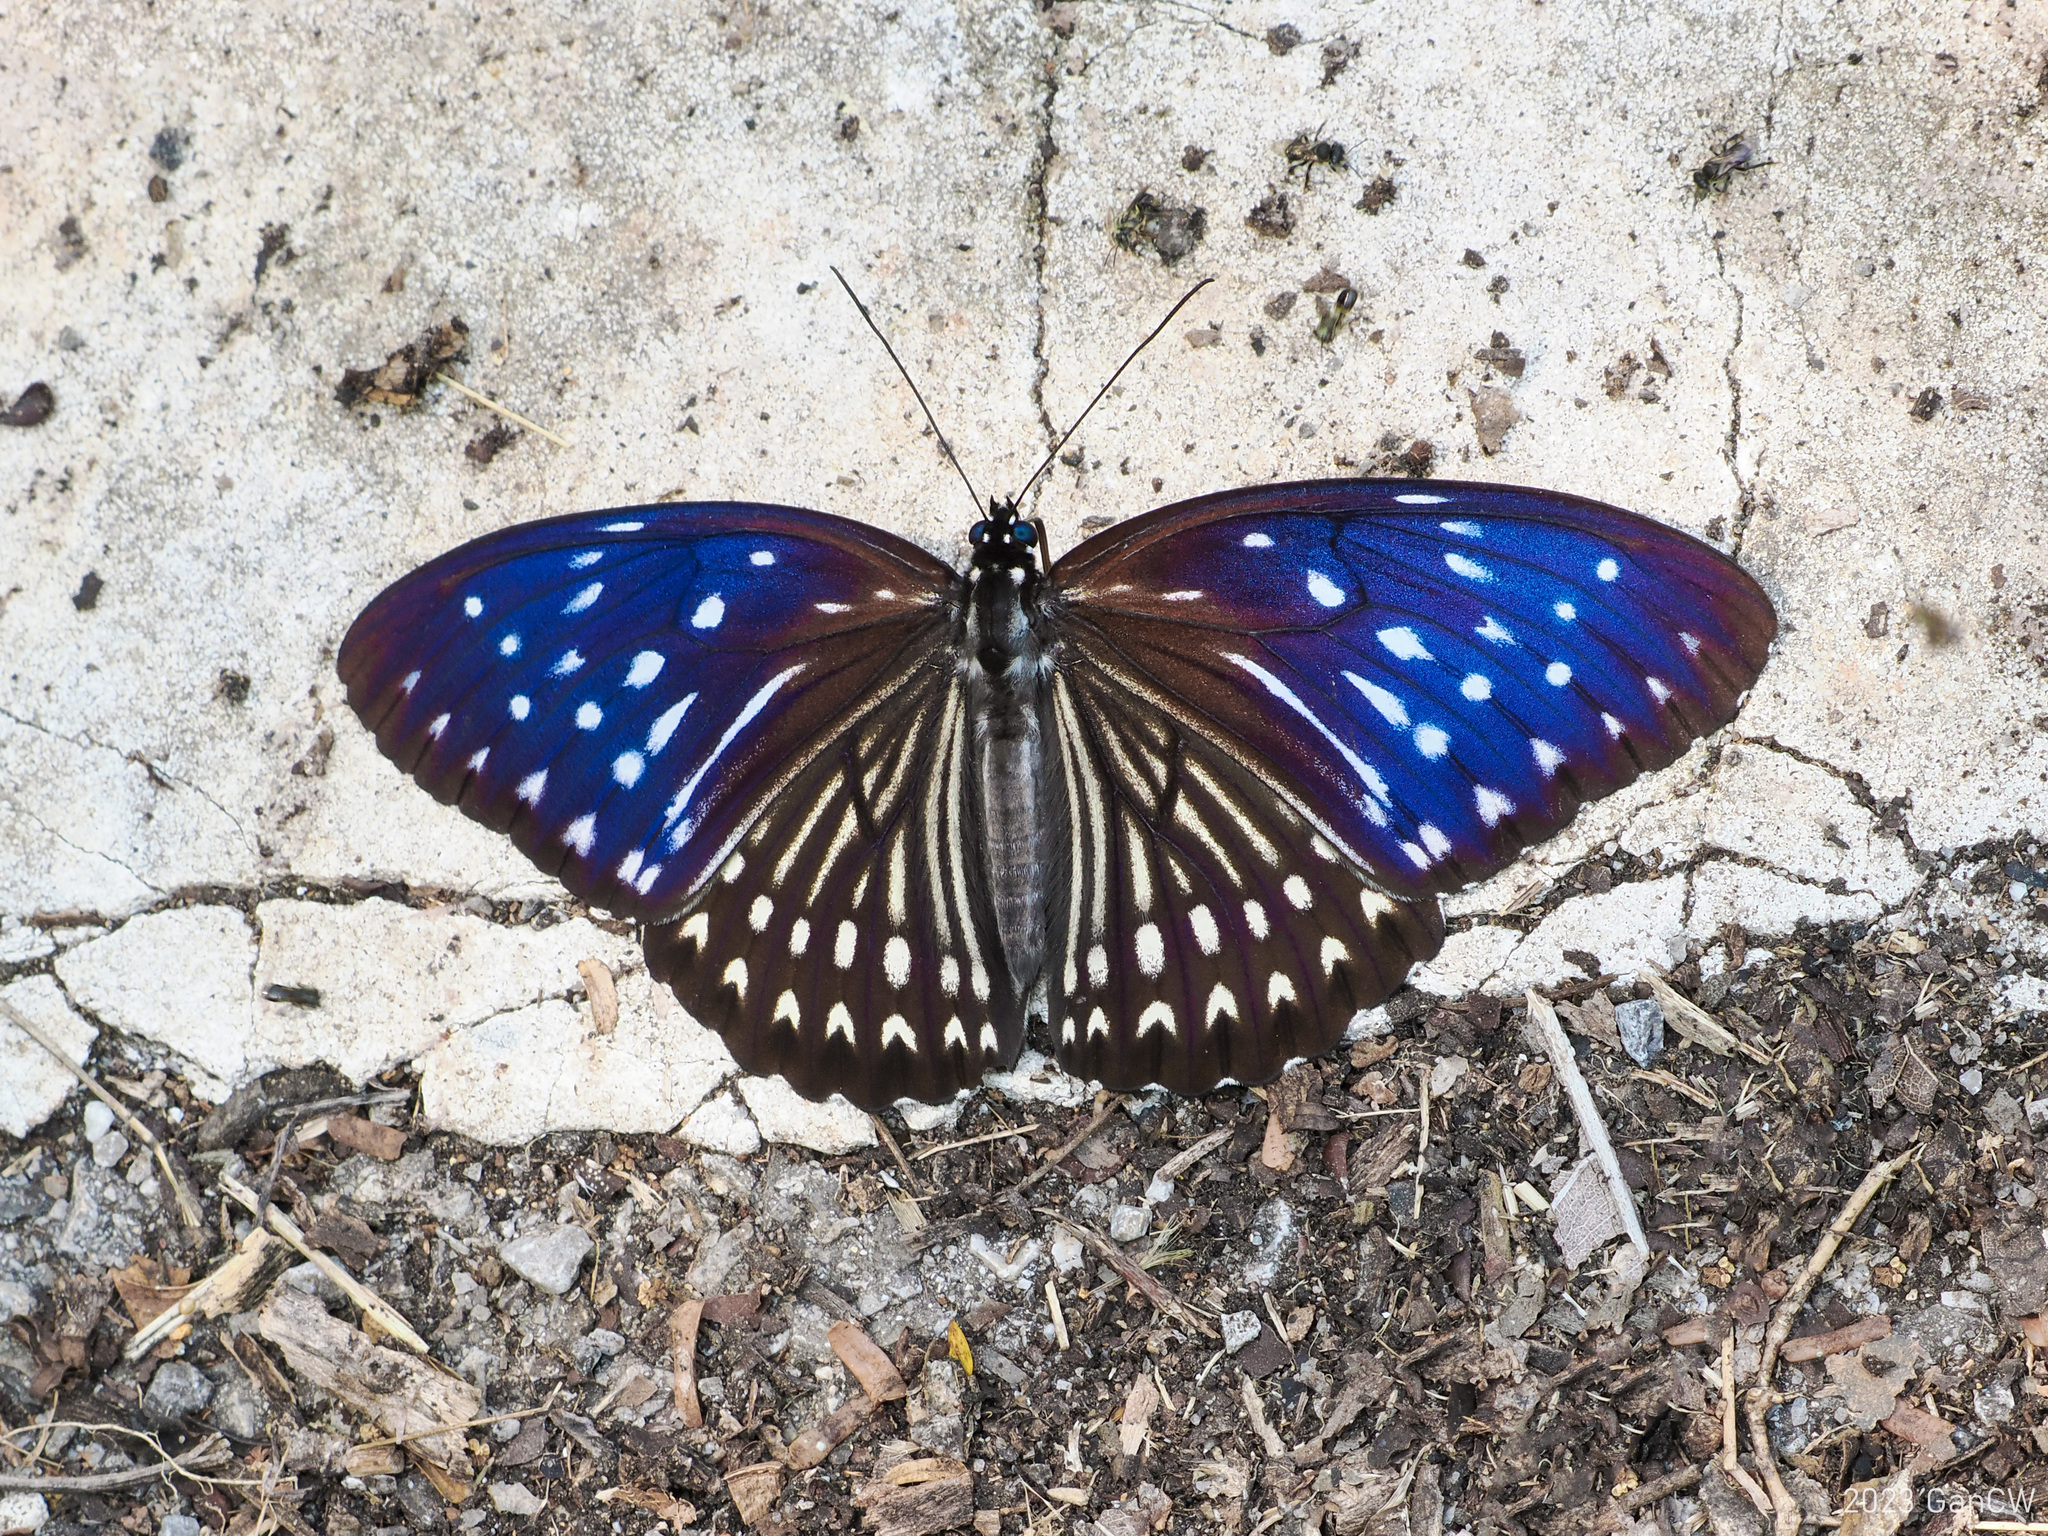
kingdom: Animalia
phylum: Arthropoda
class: Insecta
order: Lepidoptera
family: Nymphalidae
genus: Penthema
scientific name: Penthema darlisa
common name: Three-coloured kaiser
